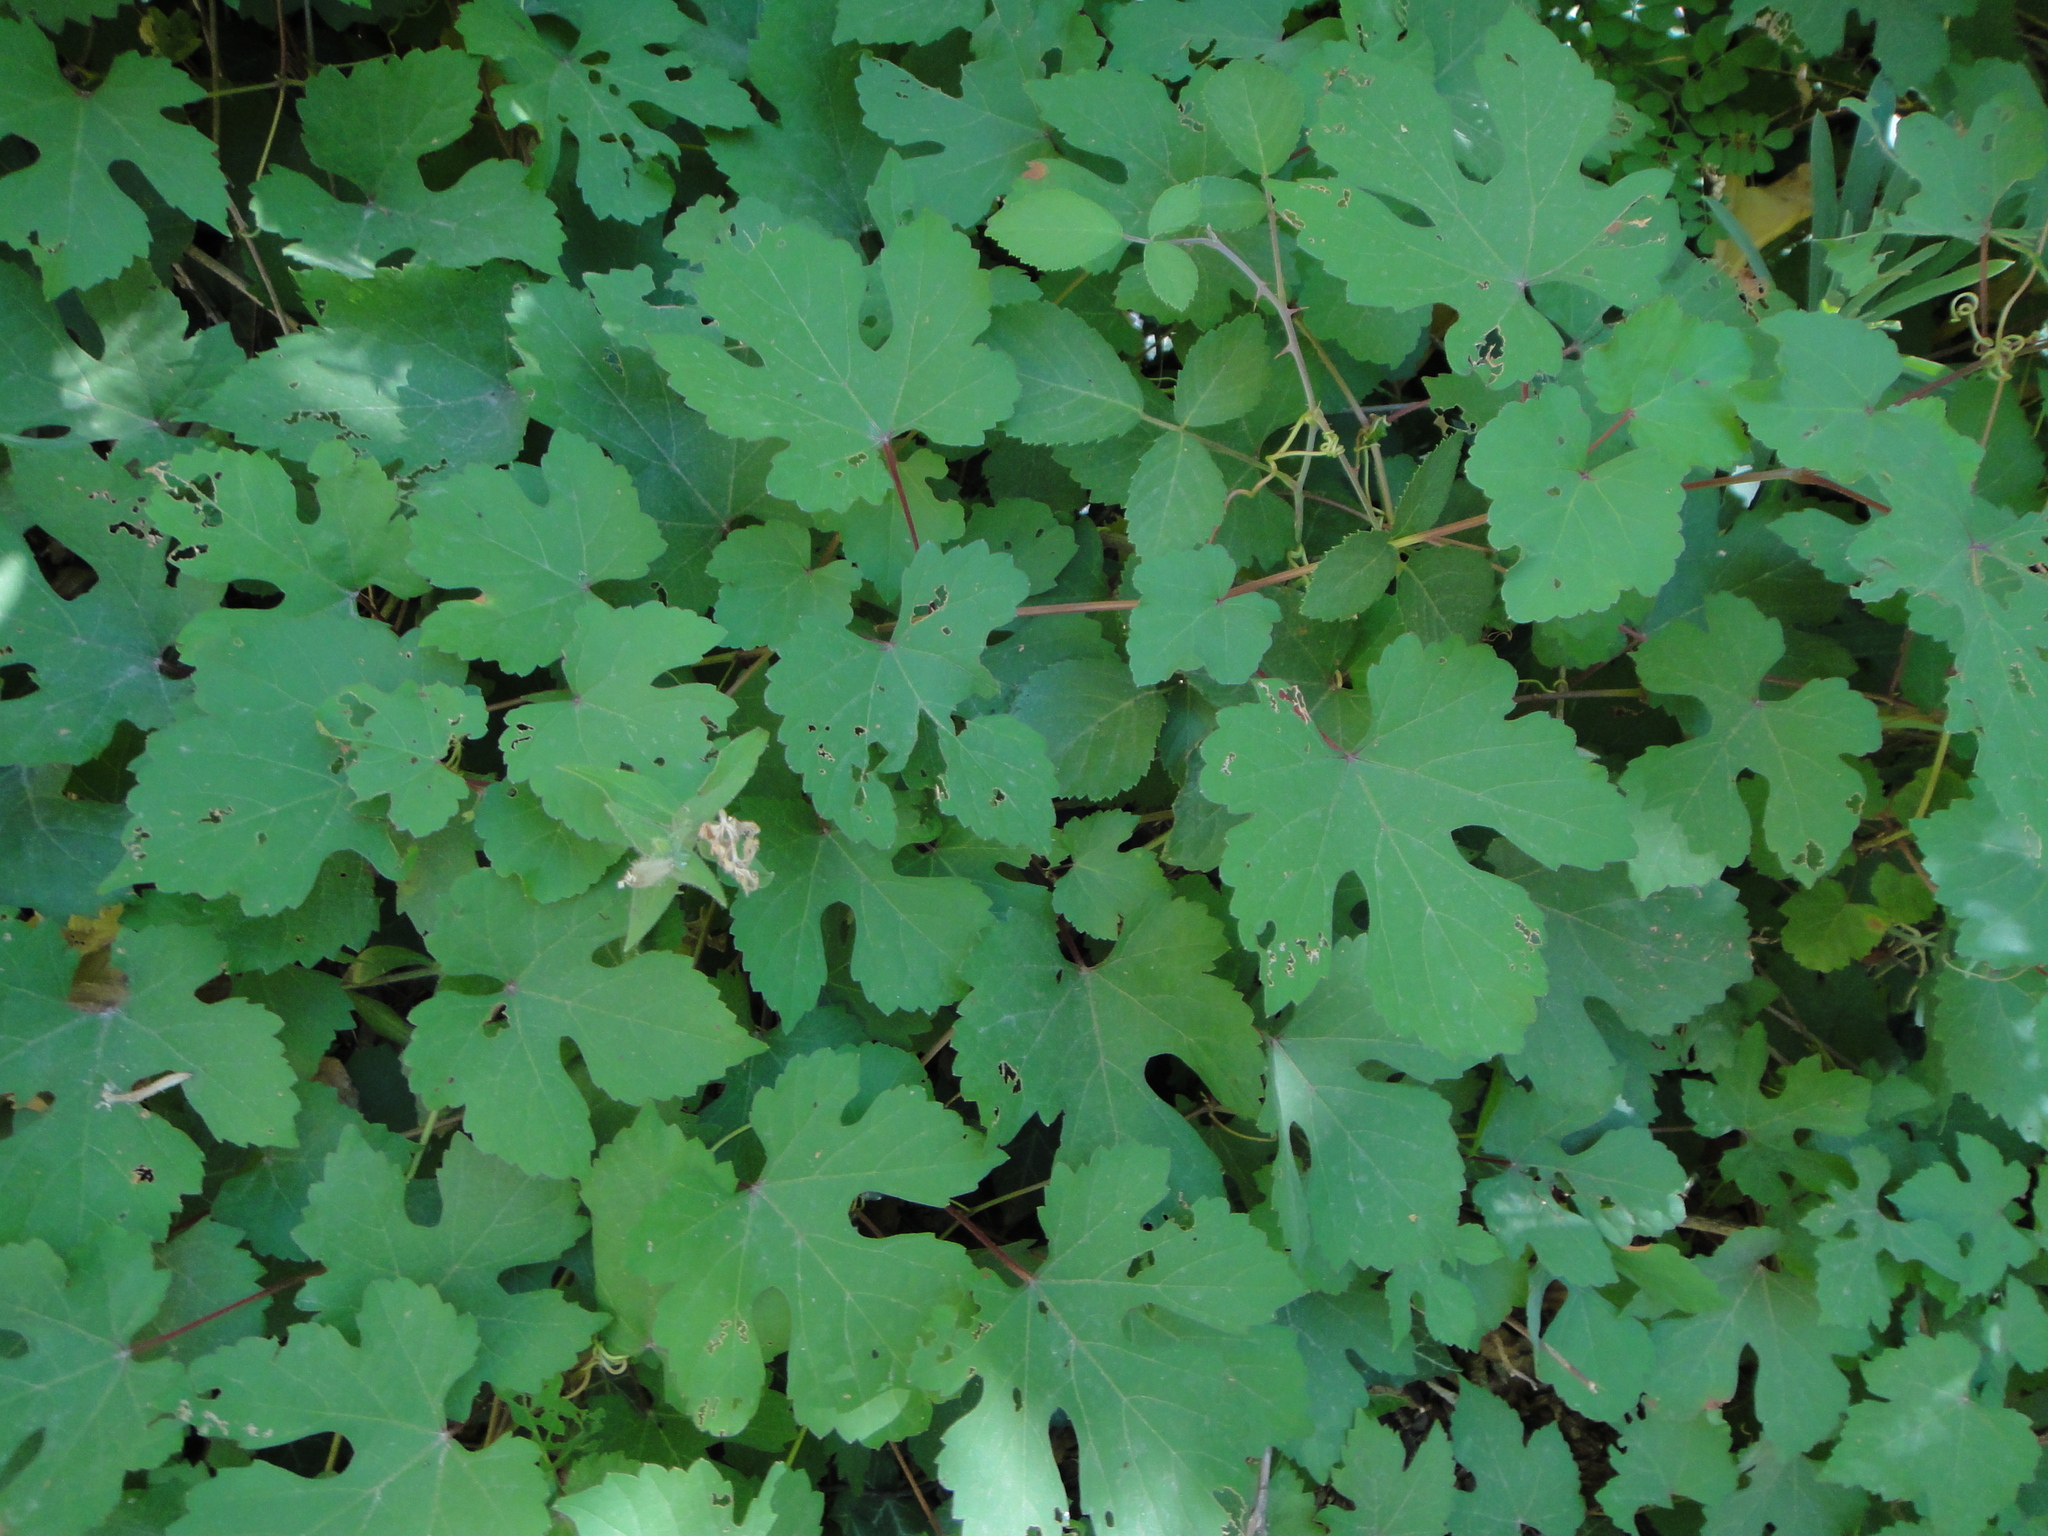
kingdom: Plantae
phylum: Tracheophyta
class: Magnoliopsida
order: Vitales
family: Vitaceae
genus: Vitis
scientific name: Vitis gmelinii
